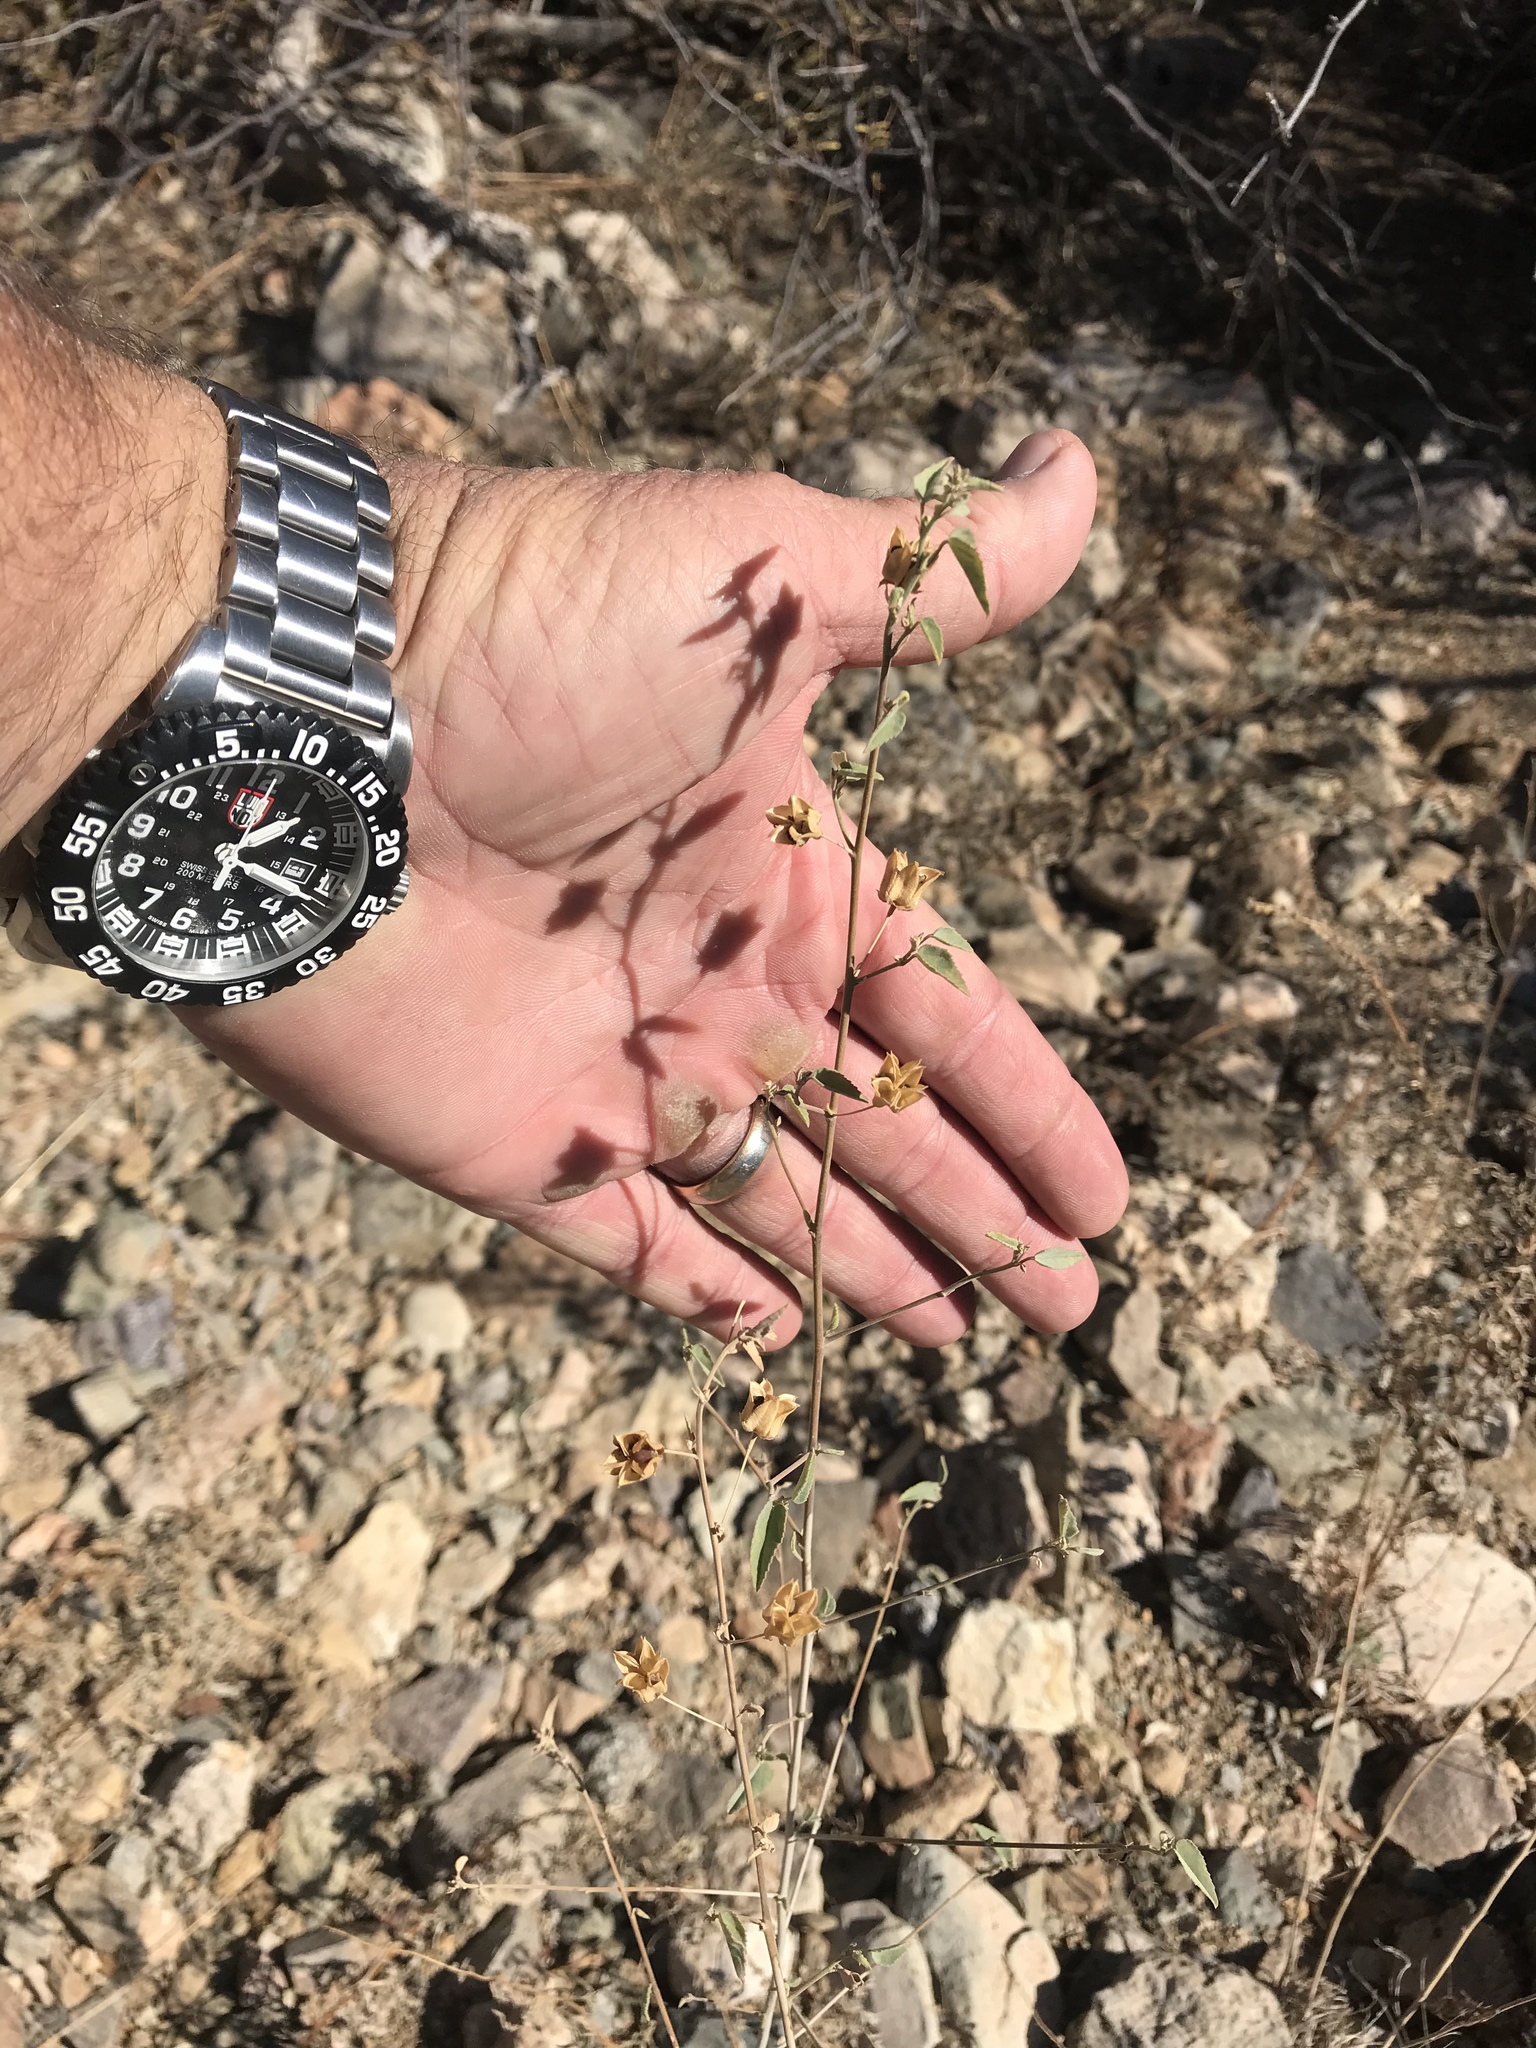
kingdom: Plantae
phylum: Tracheophyta
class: Magnoliopsida
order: Malvales
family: Malvaceae
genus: Abutilon
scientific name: Abutilon incanum
